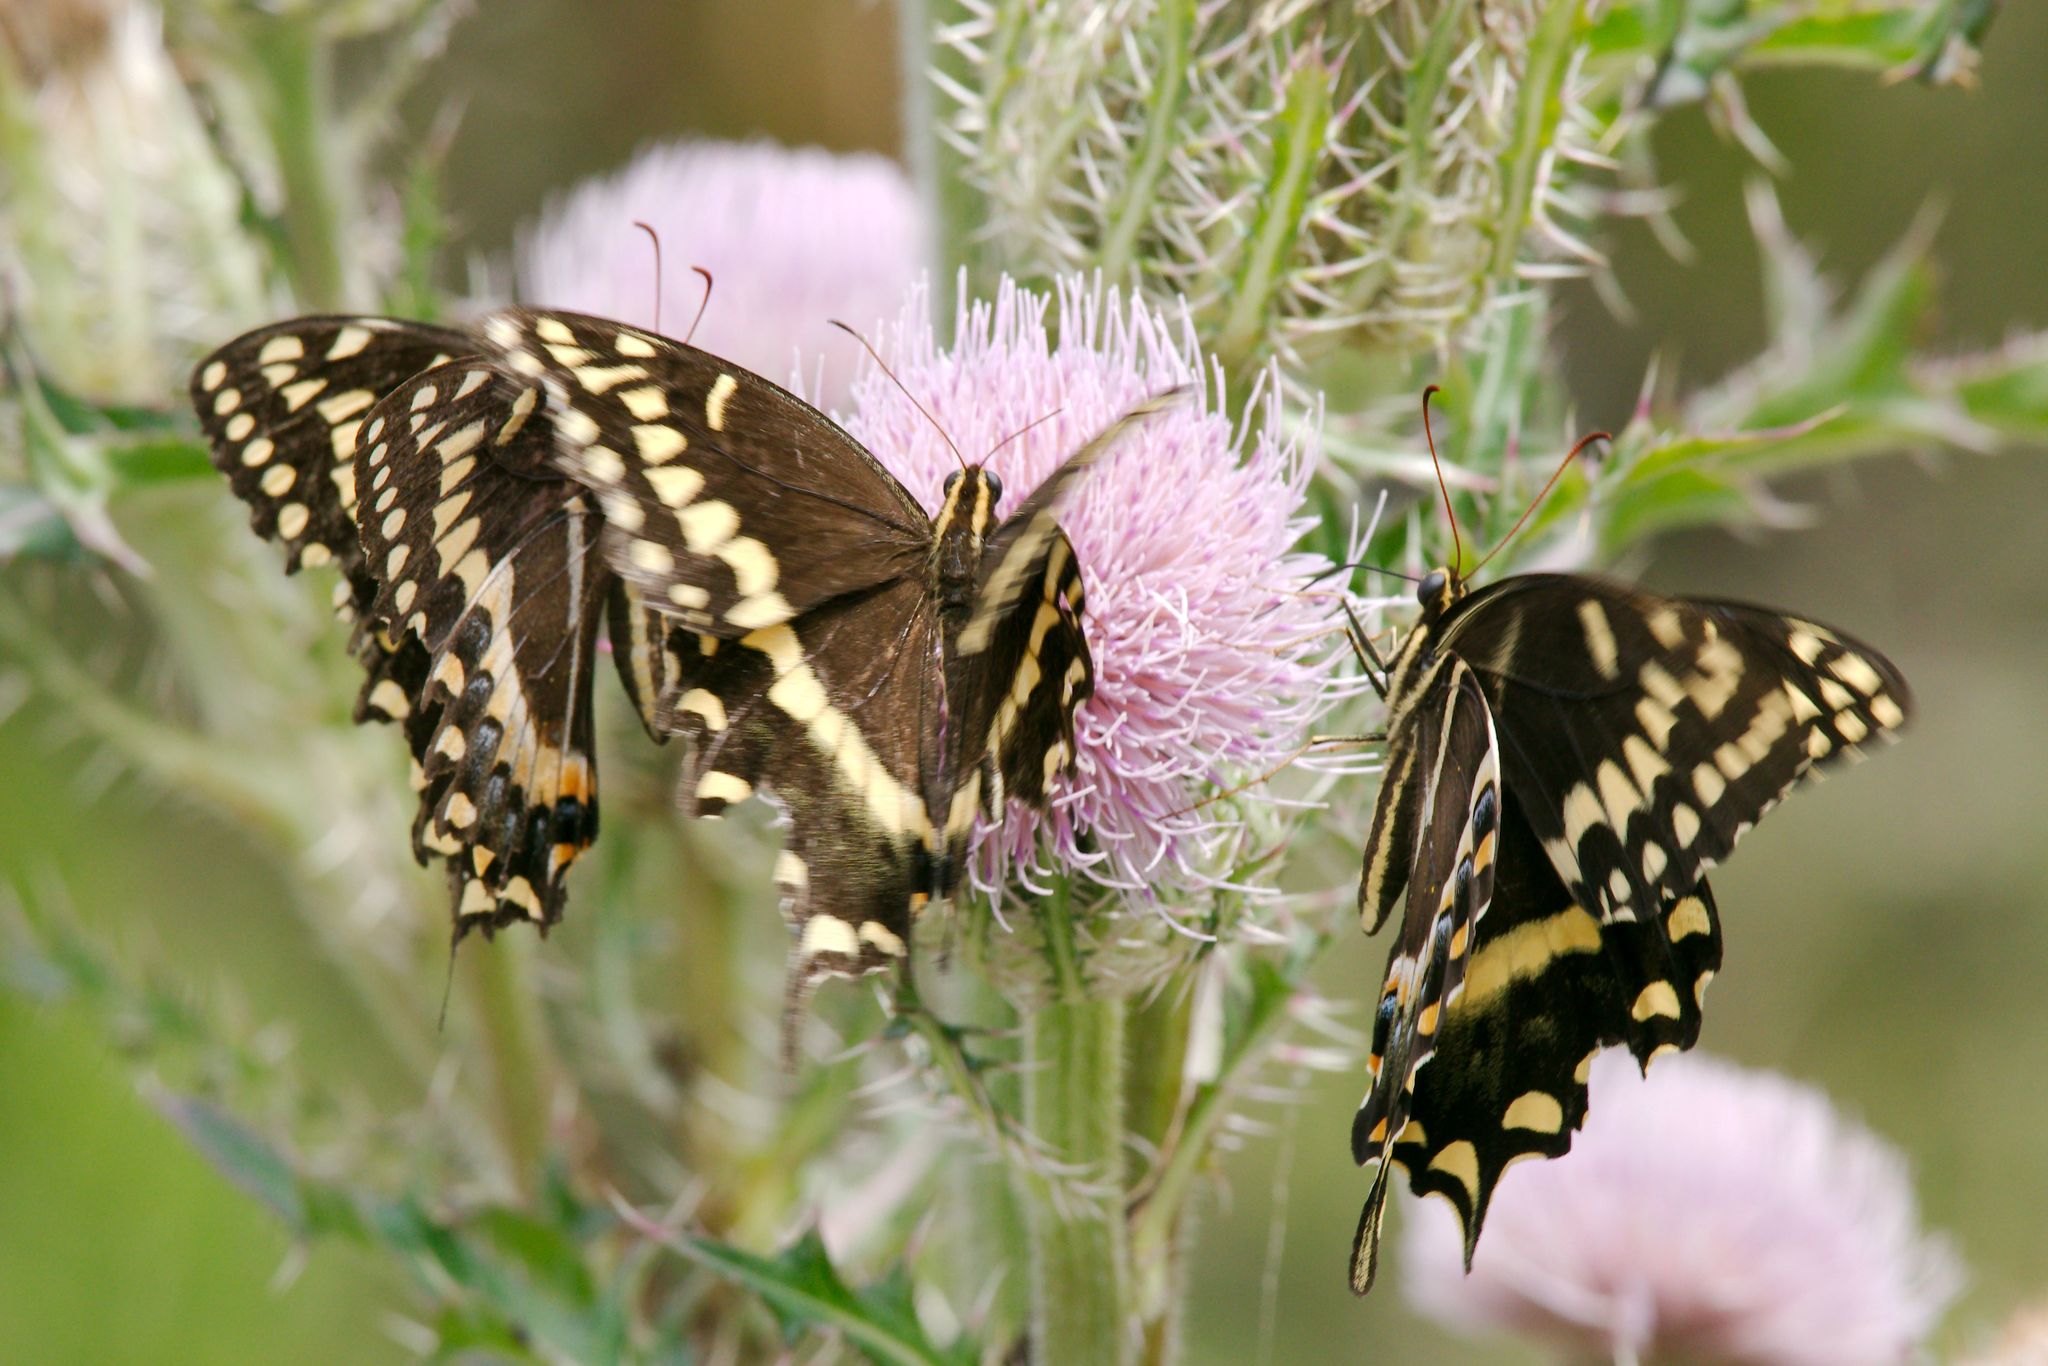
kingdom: Animalia
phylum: Arthropoda
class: Insecta
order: Lepidoptera
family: Papilionidae
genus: Papilio
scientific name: Papilio palamedes
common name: Palamedes swallowtail
